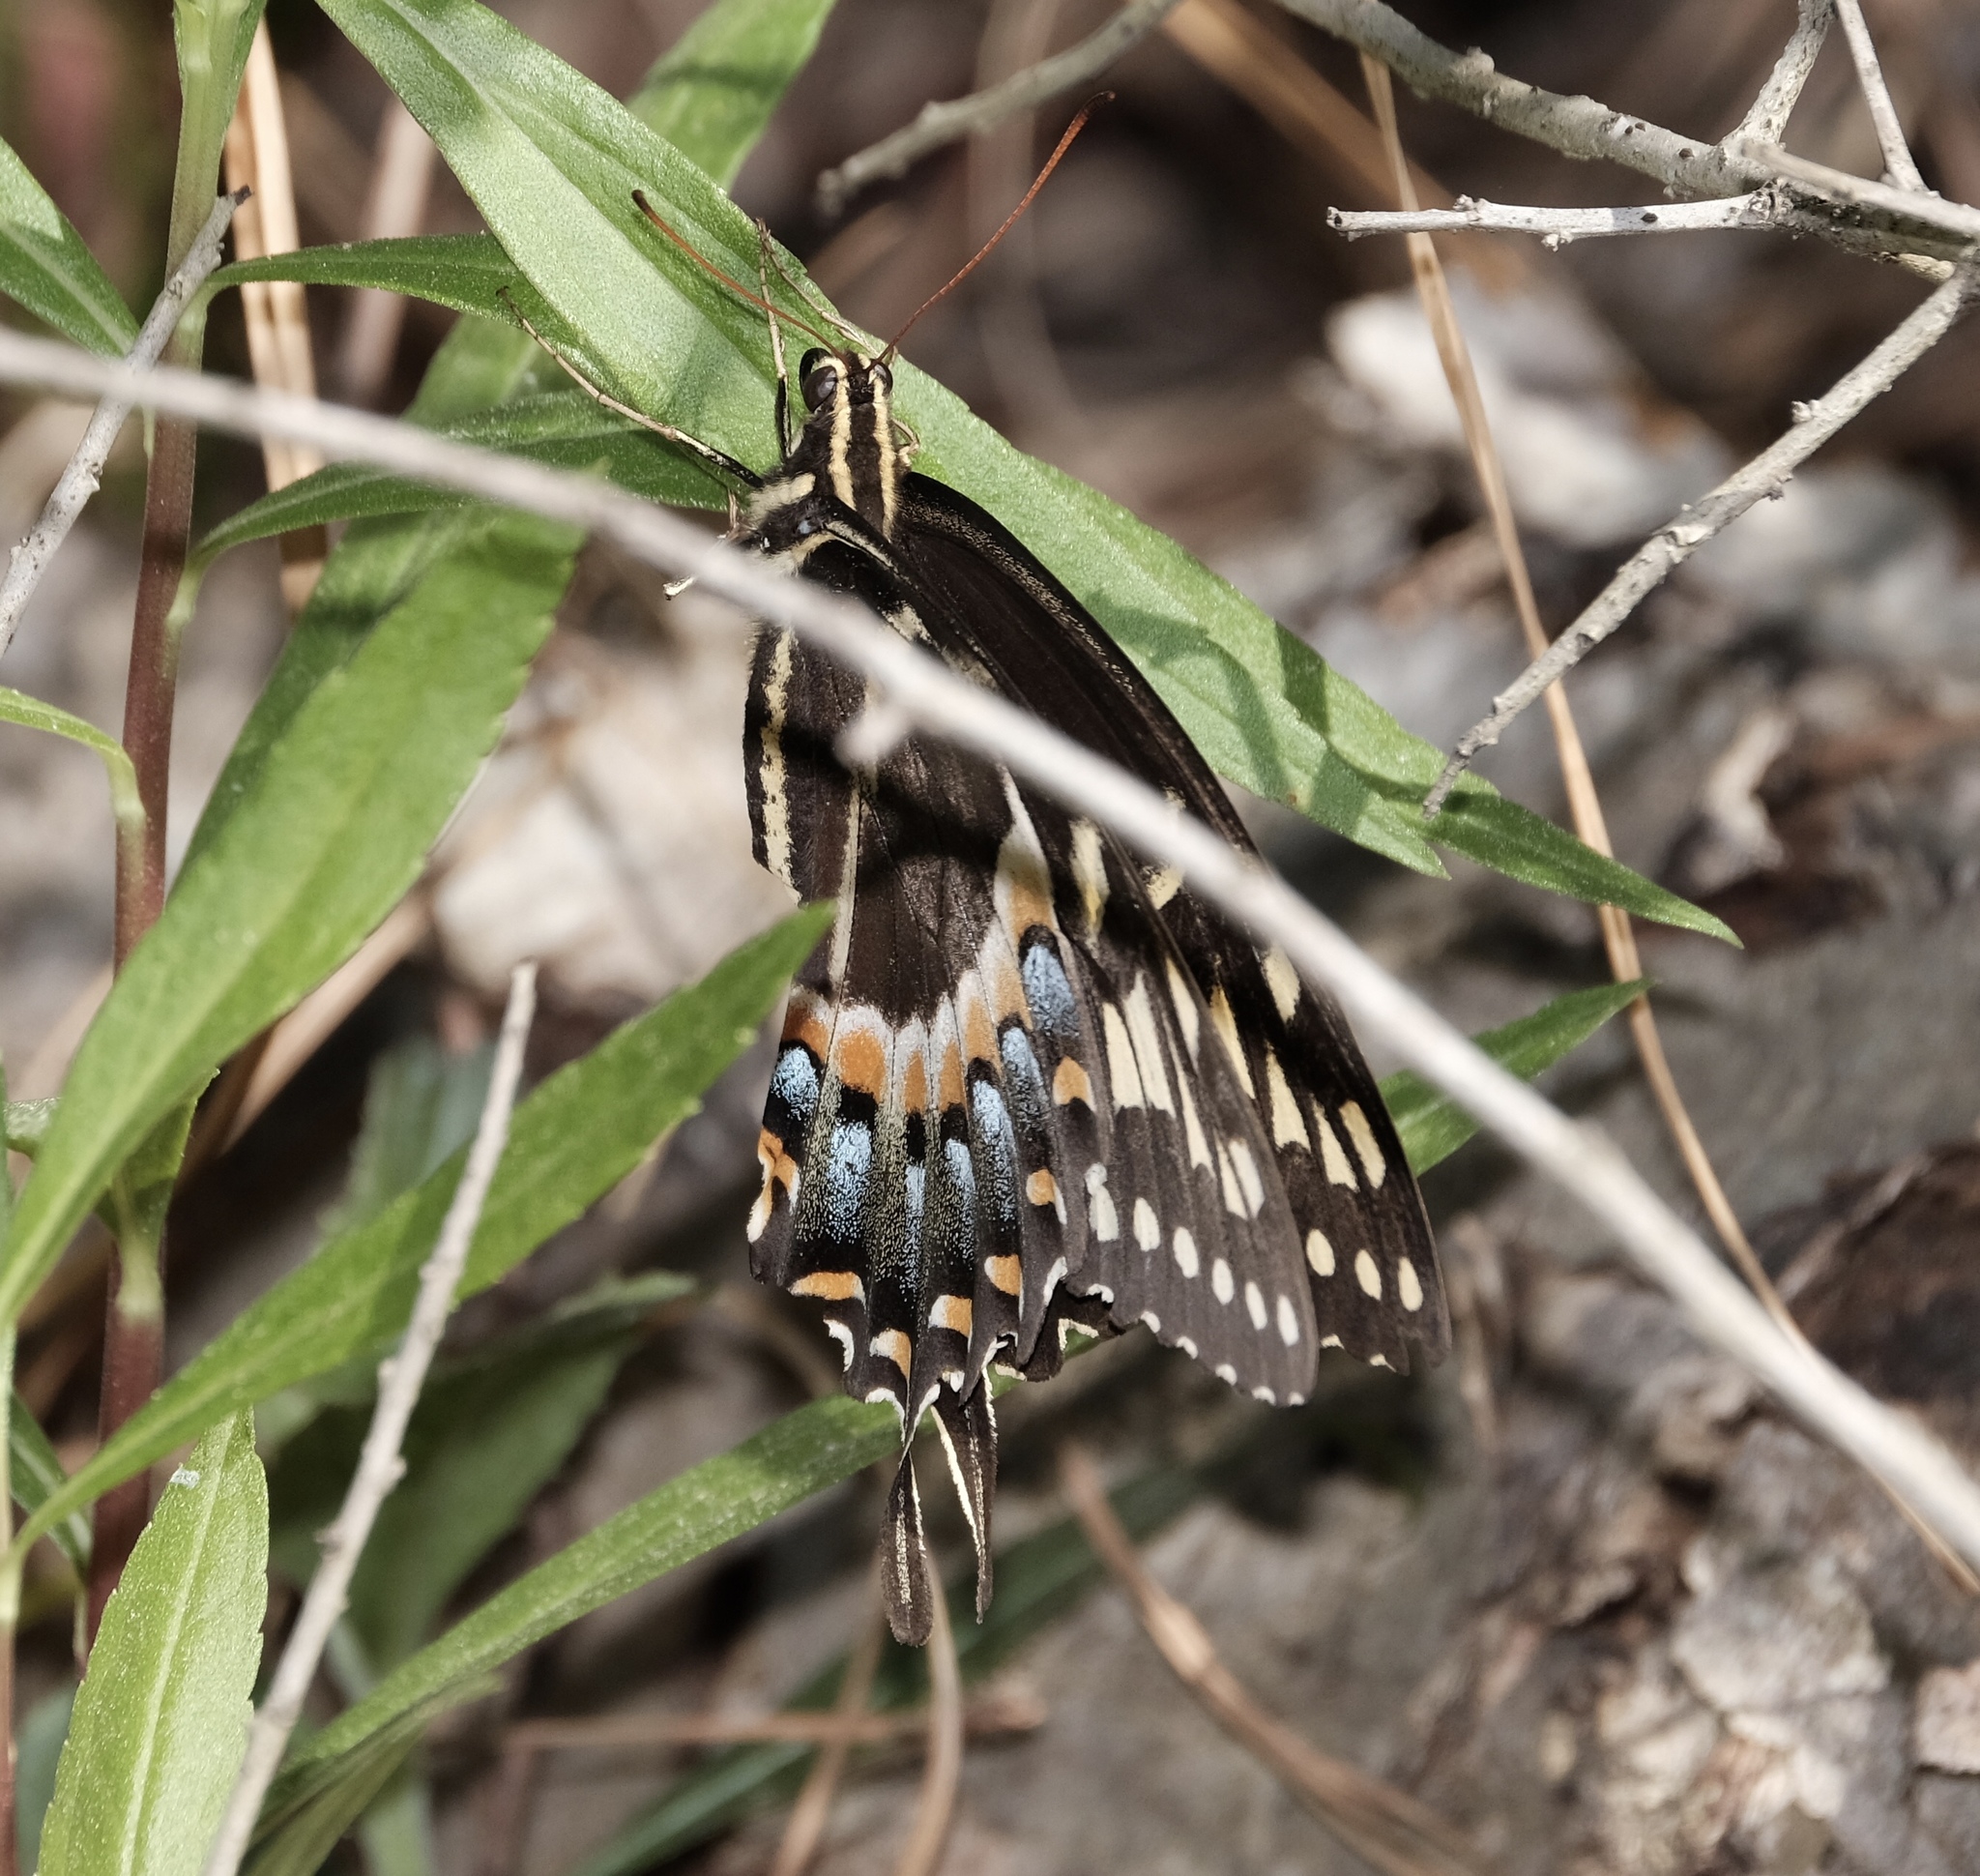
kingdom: Animalia
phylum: Arthropoda
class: Insecta
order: Lepidoptera
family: Papilionidae
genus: Papilio
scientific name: Papilio palamedes
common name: Palamedes swallowtail
